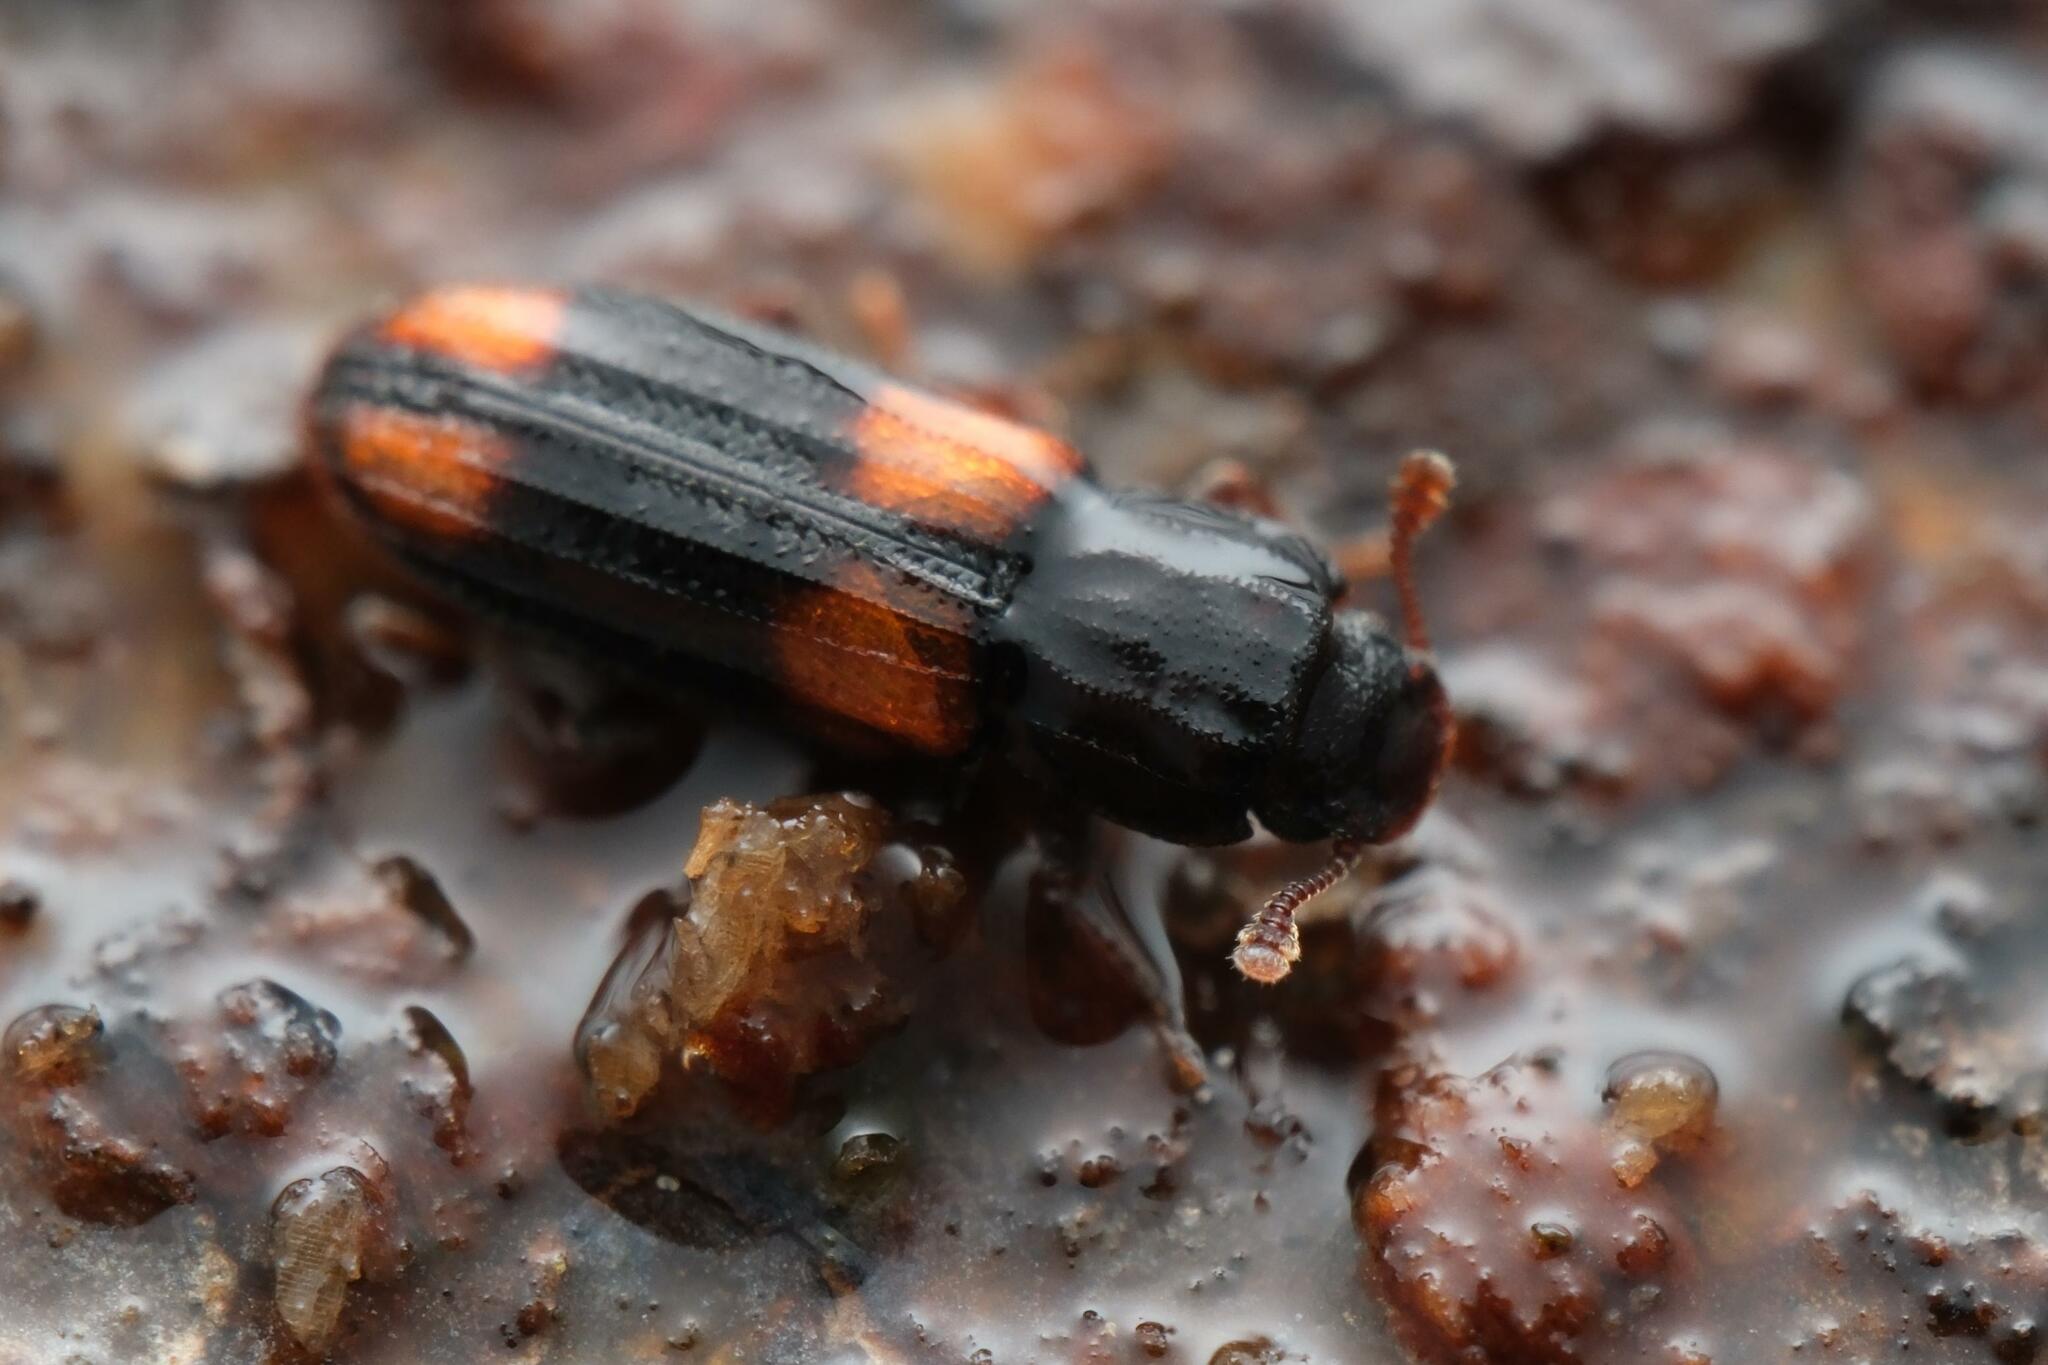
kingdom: Animalia
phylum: Arthropoda
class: Insecta
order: Coleoptera
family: Zopheridae
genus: Bitoma
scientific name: Bitoma crenata
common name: Bark beetle
